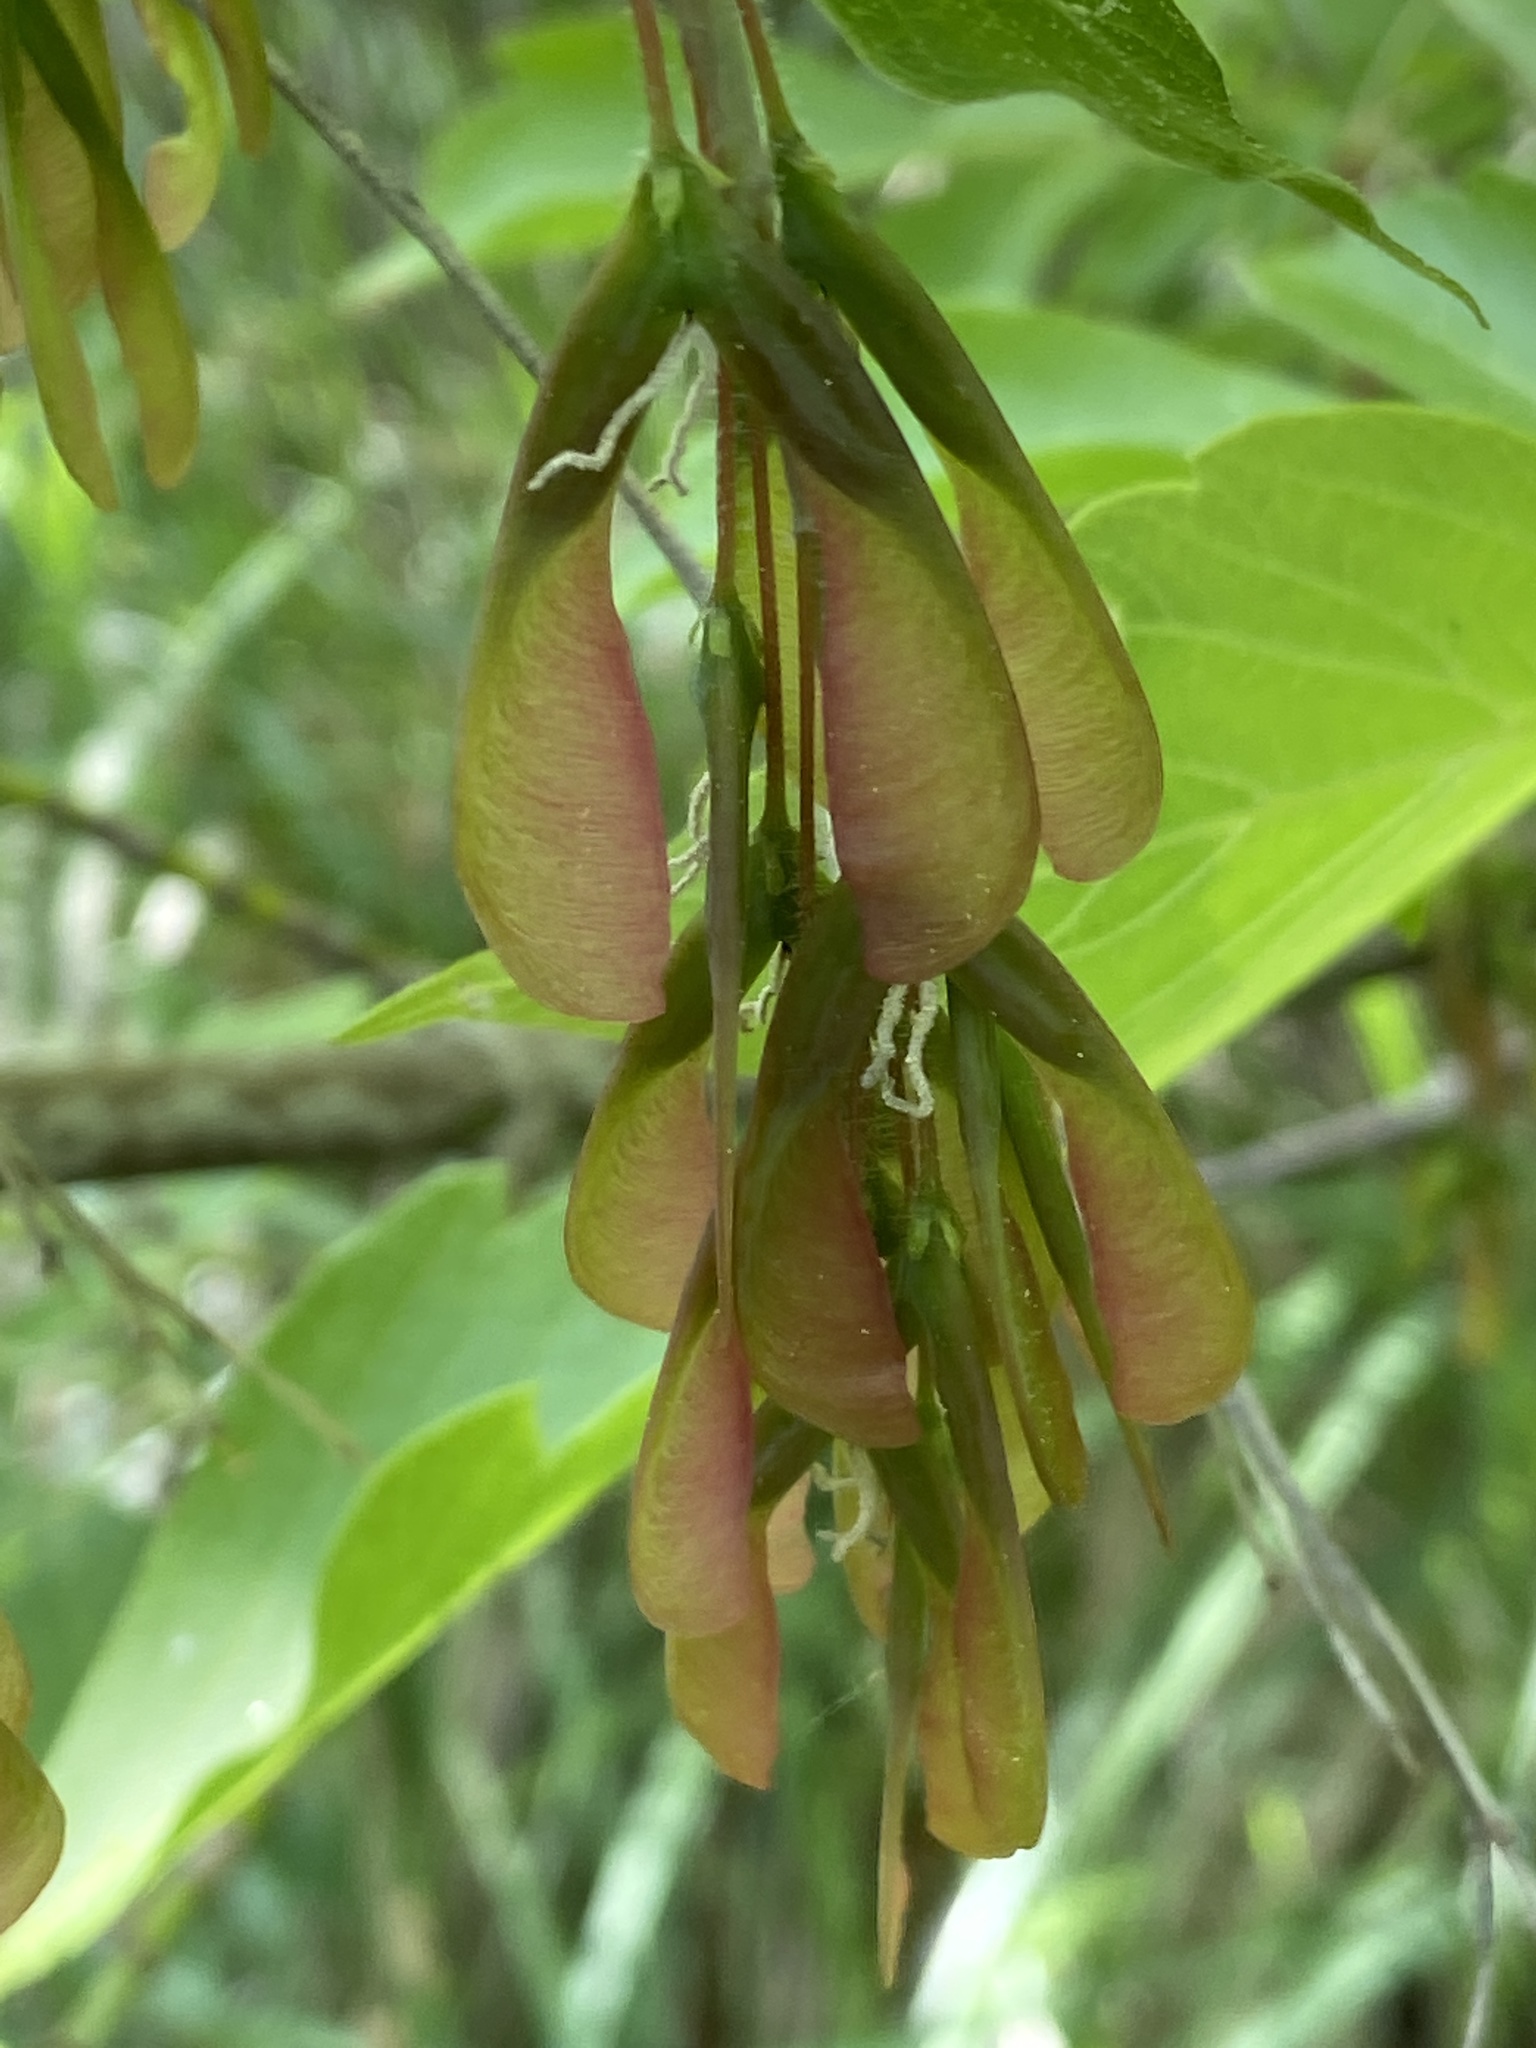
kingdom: Plantae
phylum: Tracheophyta
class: Magnoliopsida
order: Sapindales
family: Sapindaceae
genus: Acer
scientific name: Acer negundo
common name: Ashleaf maple
